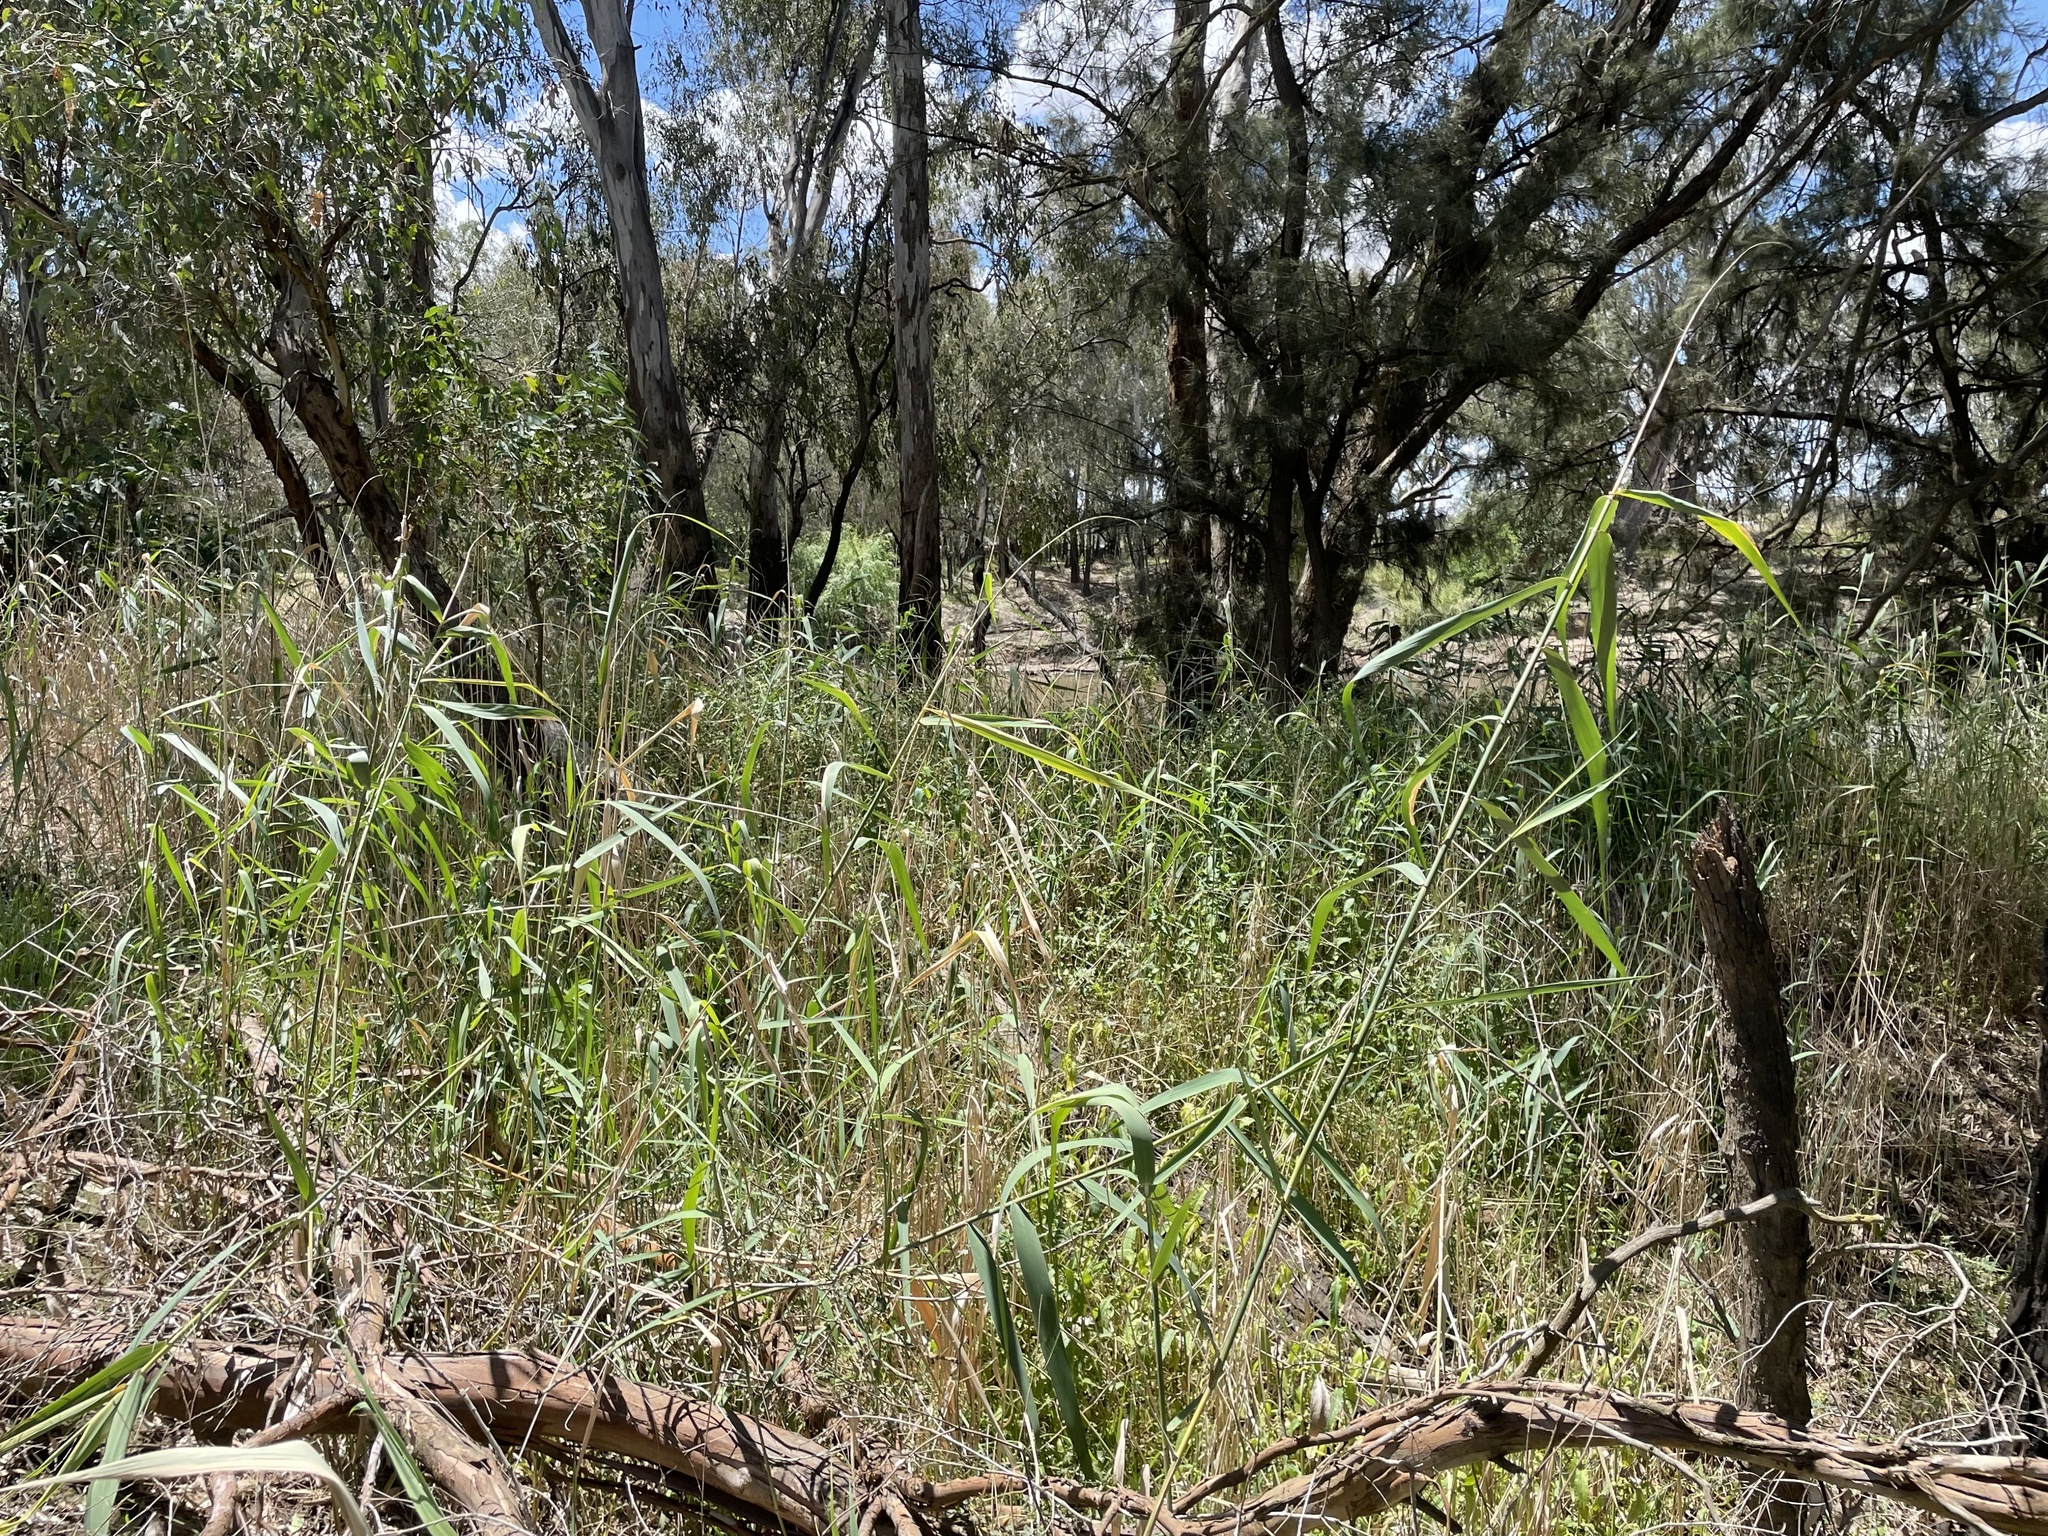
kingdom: Plantae
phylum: Tracheophyta
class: Liliopsida
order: Poales
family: Poaceae
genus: Phragmites
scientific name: Phragmites australis
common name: Common reed
